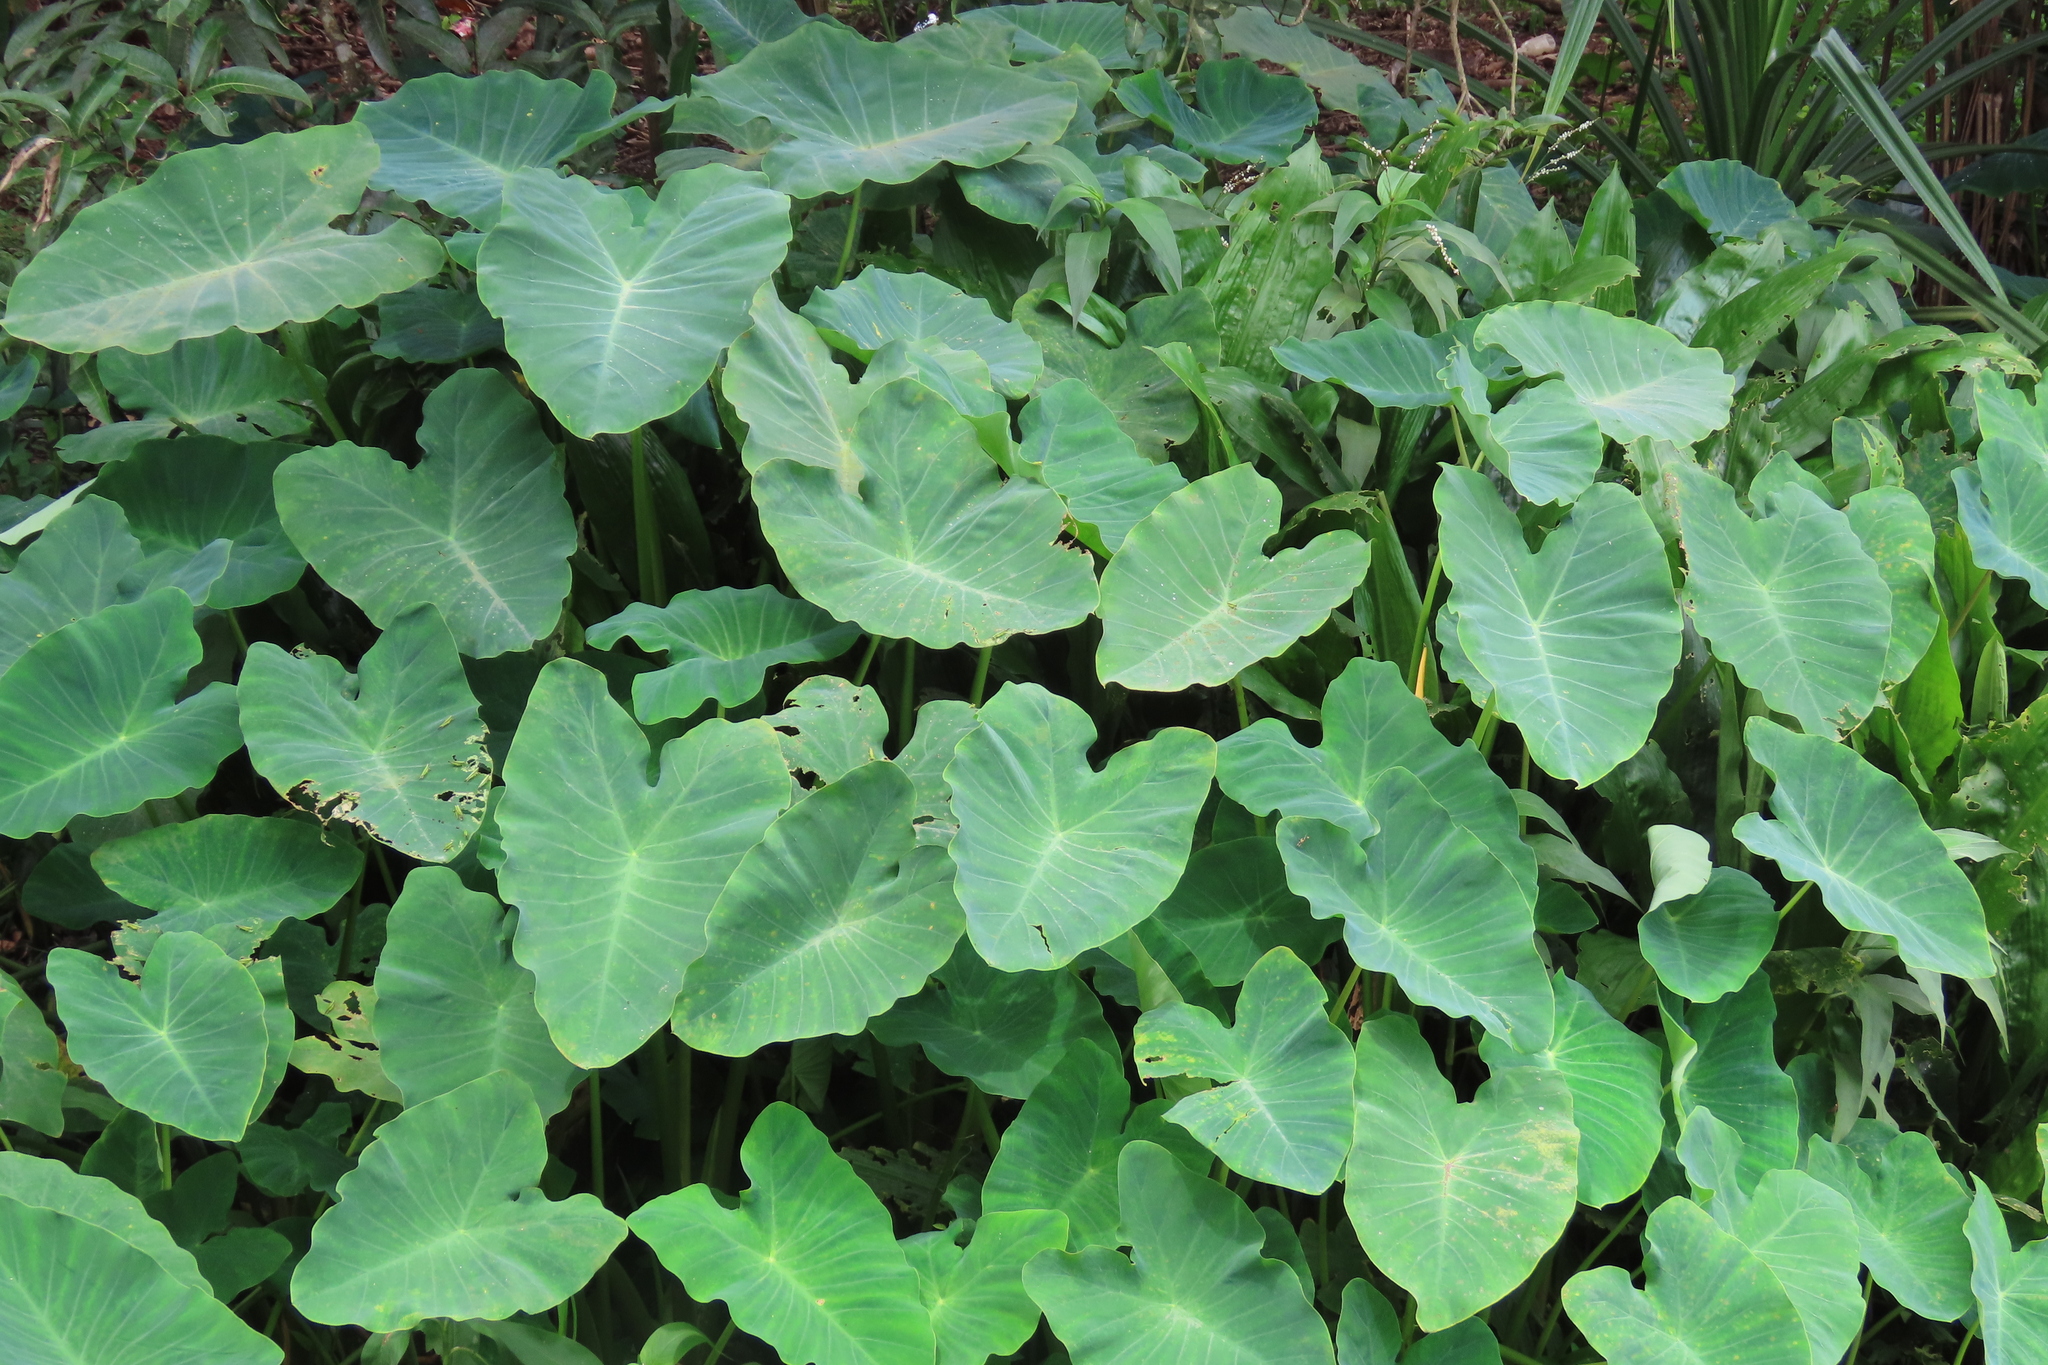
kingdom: Plantae
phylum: Tracheophyta
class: Liliopsida
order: Alismatales
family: Araceae
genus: Colocasia
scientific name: Colocasia esculenta
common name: Taro
